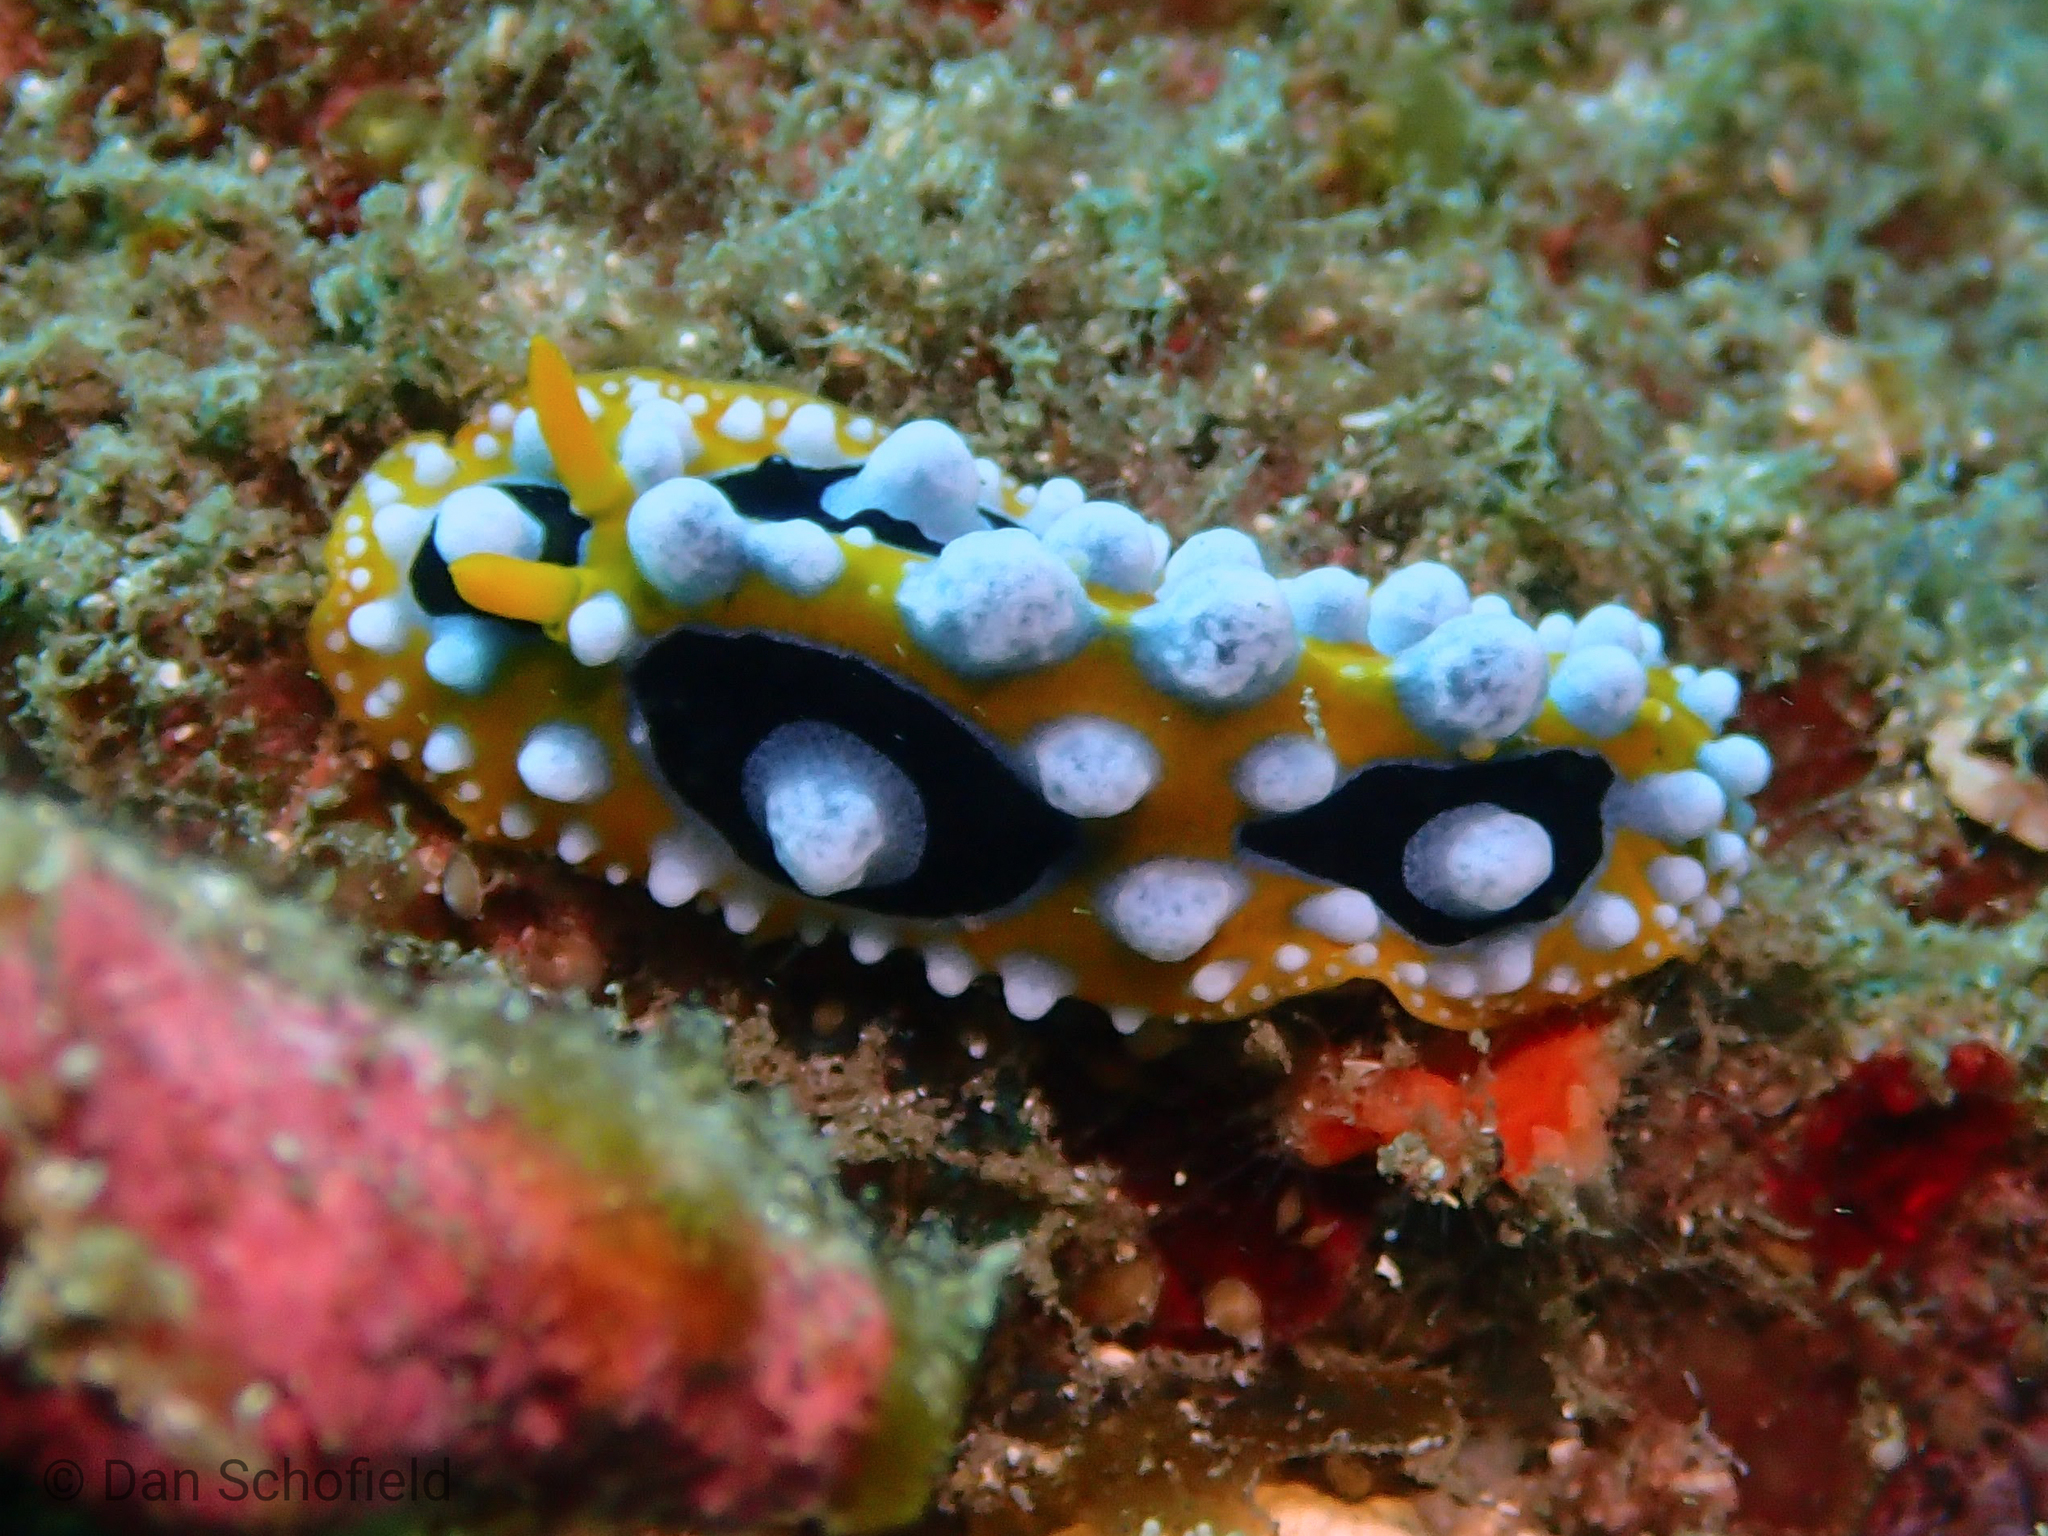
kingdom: Animalia
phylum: Mollusca
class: Gastropoda
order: Nudibranchia
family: Phyllidiidae
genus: Phyllidia
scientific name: Phyllidia ocellata
